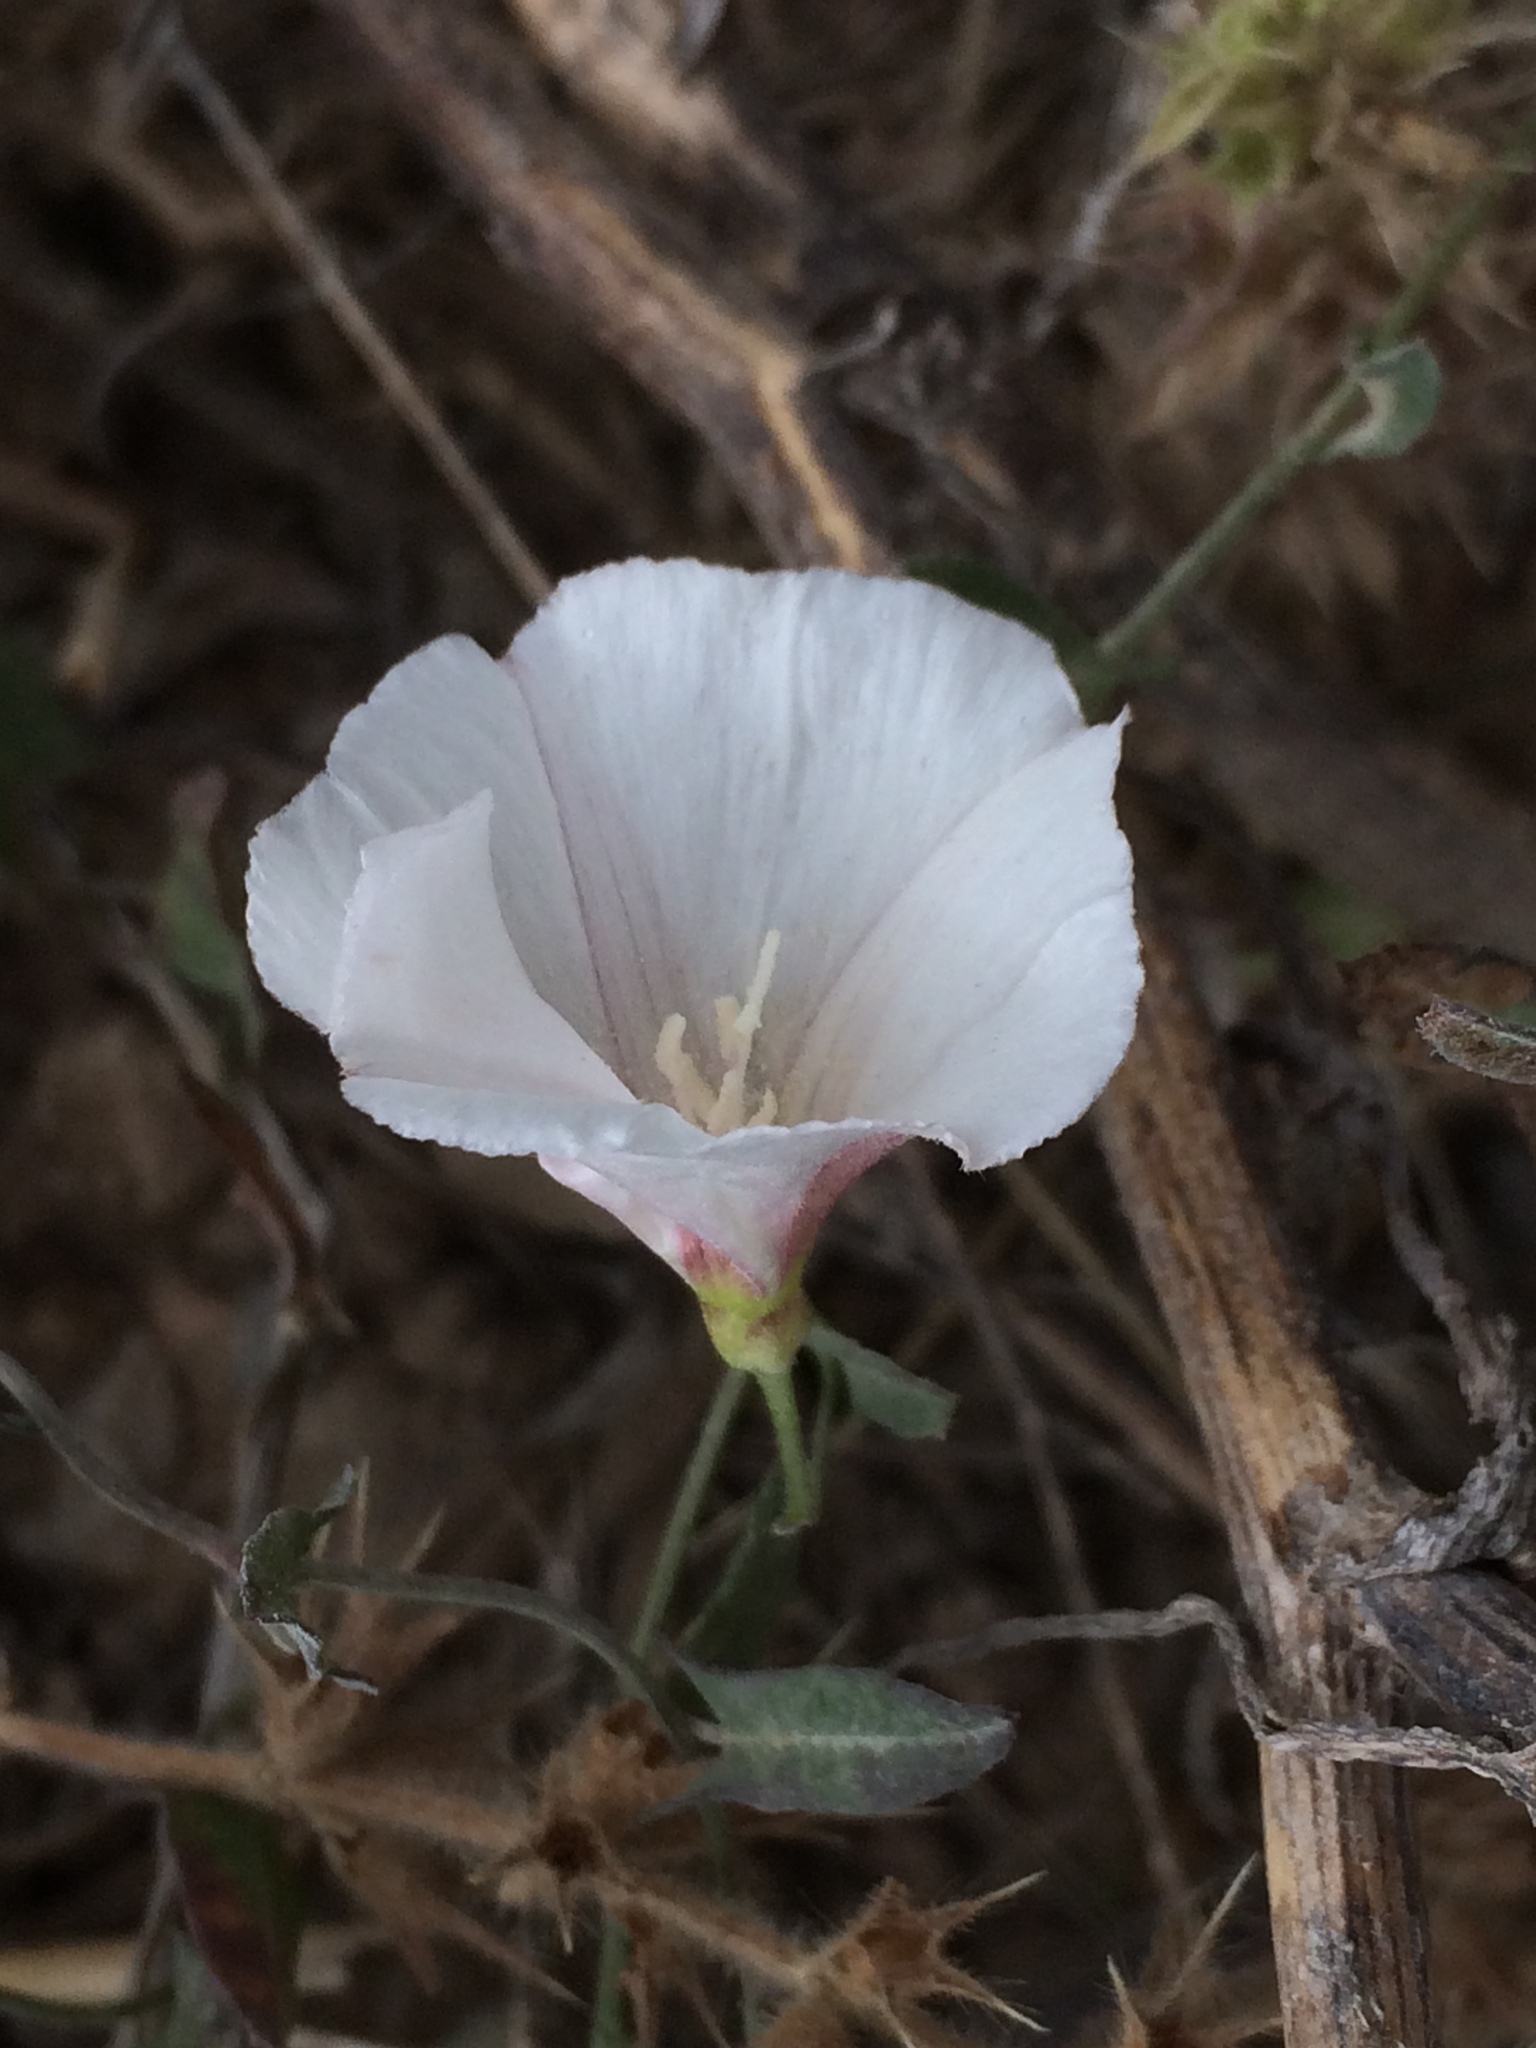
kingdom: Plantae
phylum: Tracheophyta
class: Magnoliopsida
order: Solanales
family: Convolvulaceae
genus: Convolvulus
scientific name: Convolvulus arvensis
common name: Field bindweed
